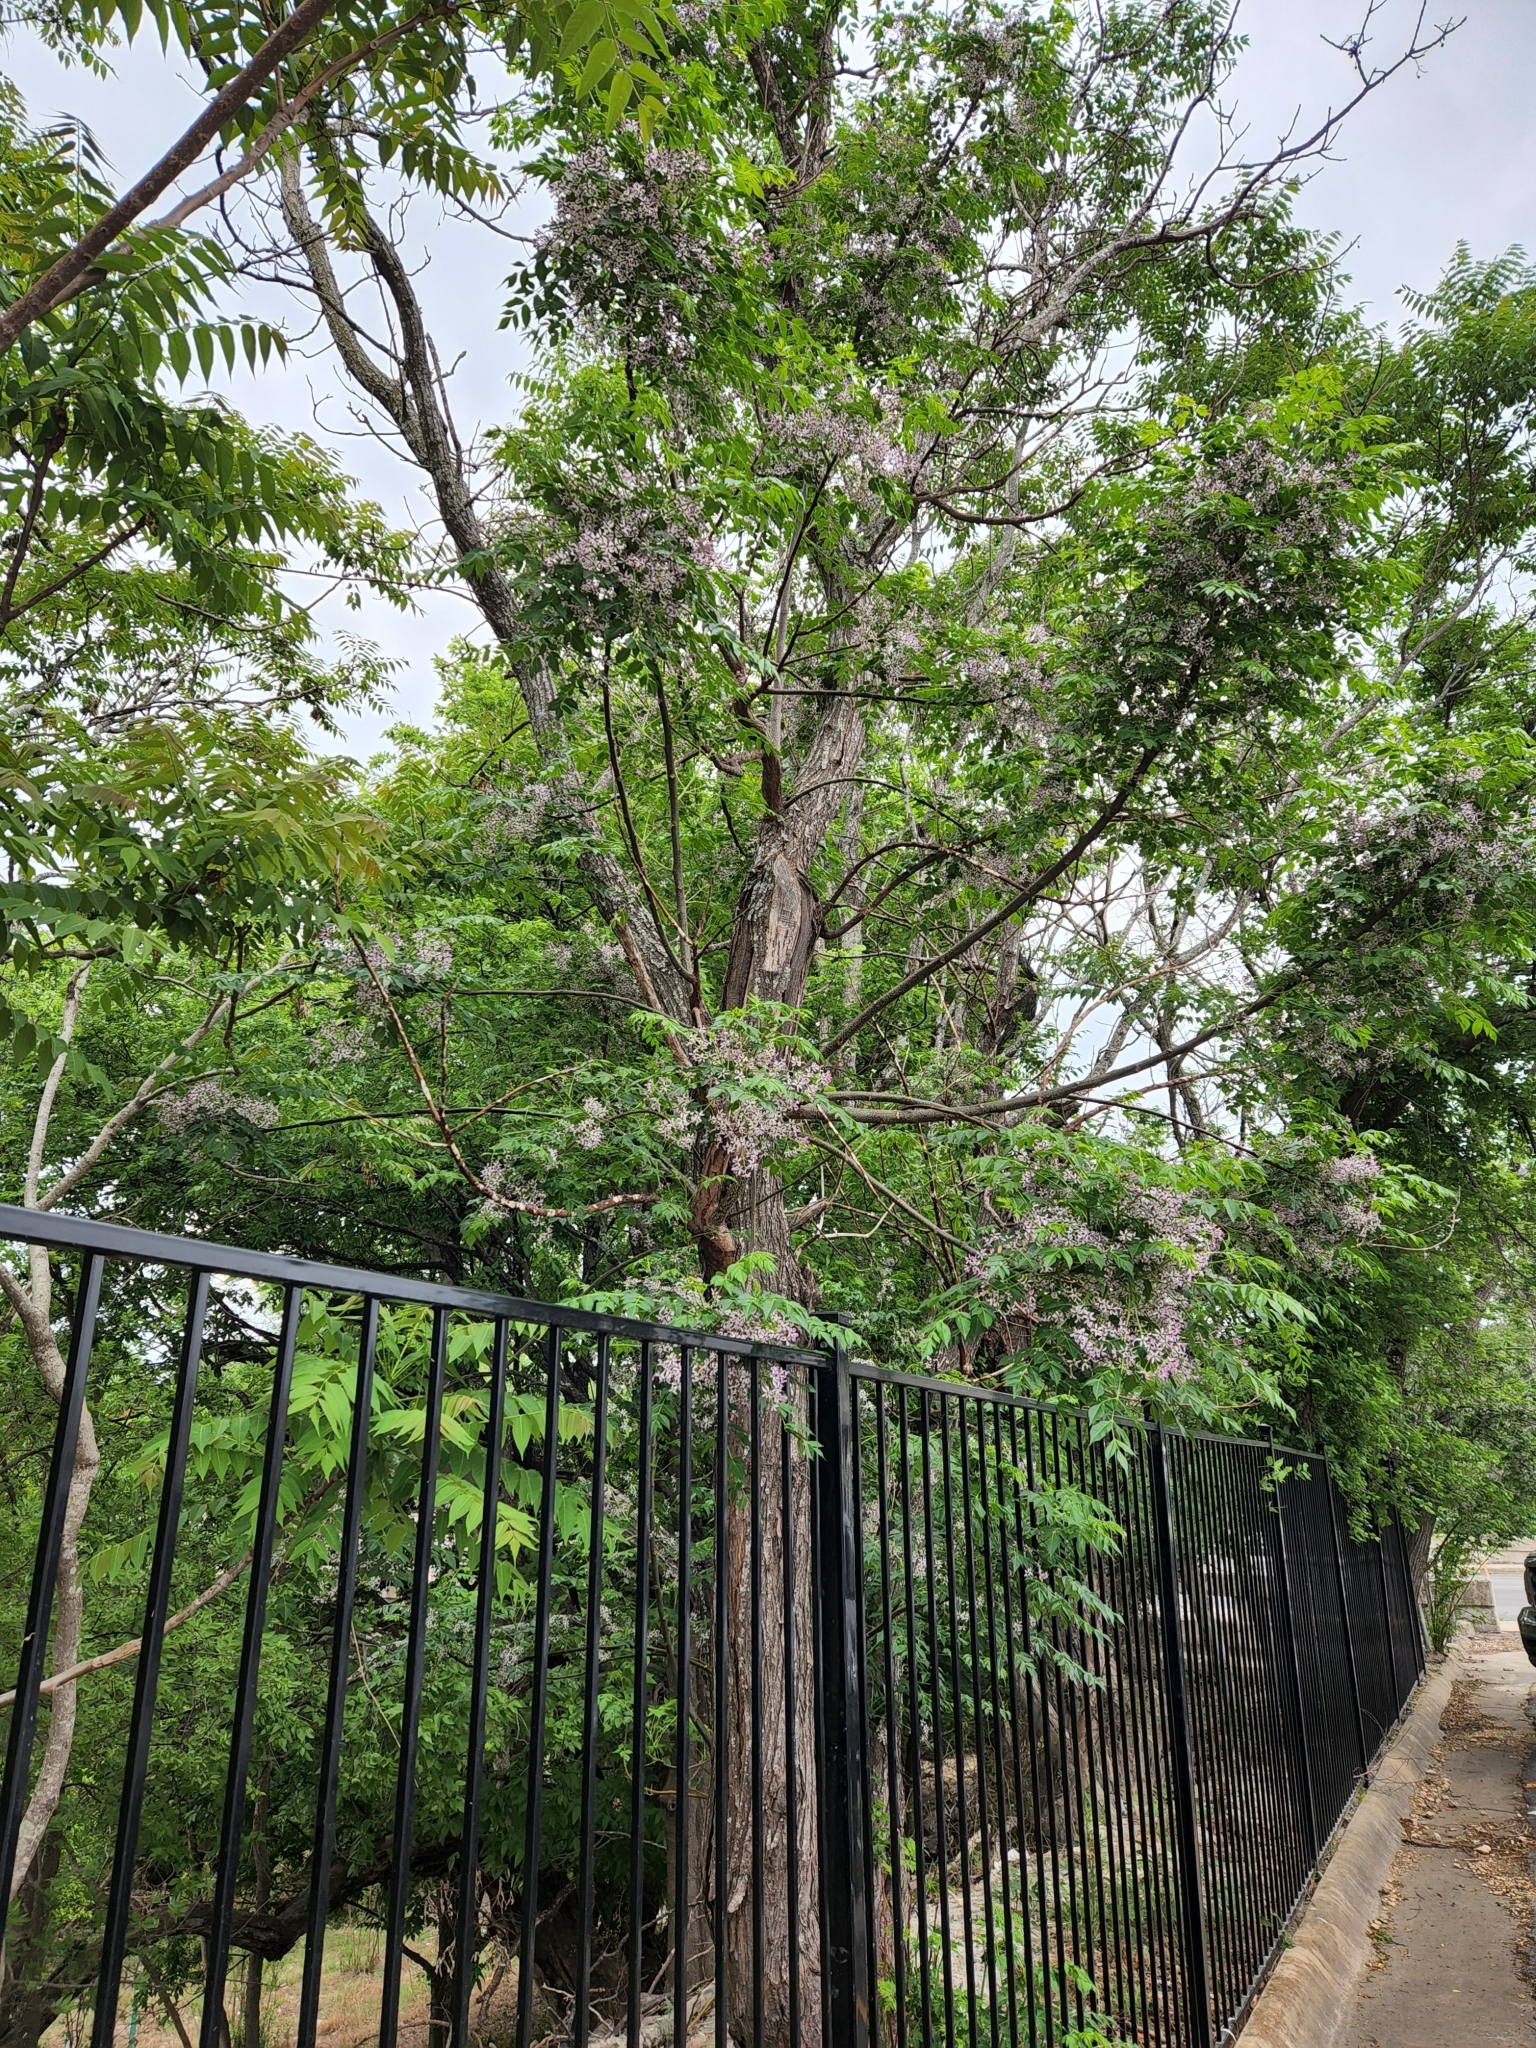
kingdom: Plantae
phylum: Tracheophyta
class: Magnoliopsida
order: Sapindales
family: Meliaceae
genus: Melia
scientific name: Melia azedarach
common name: Chinaberrytree
